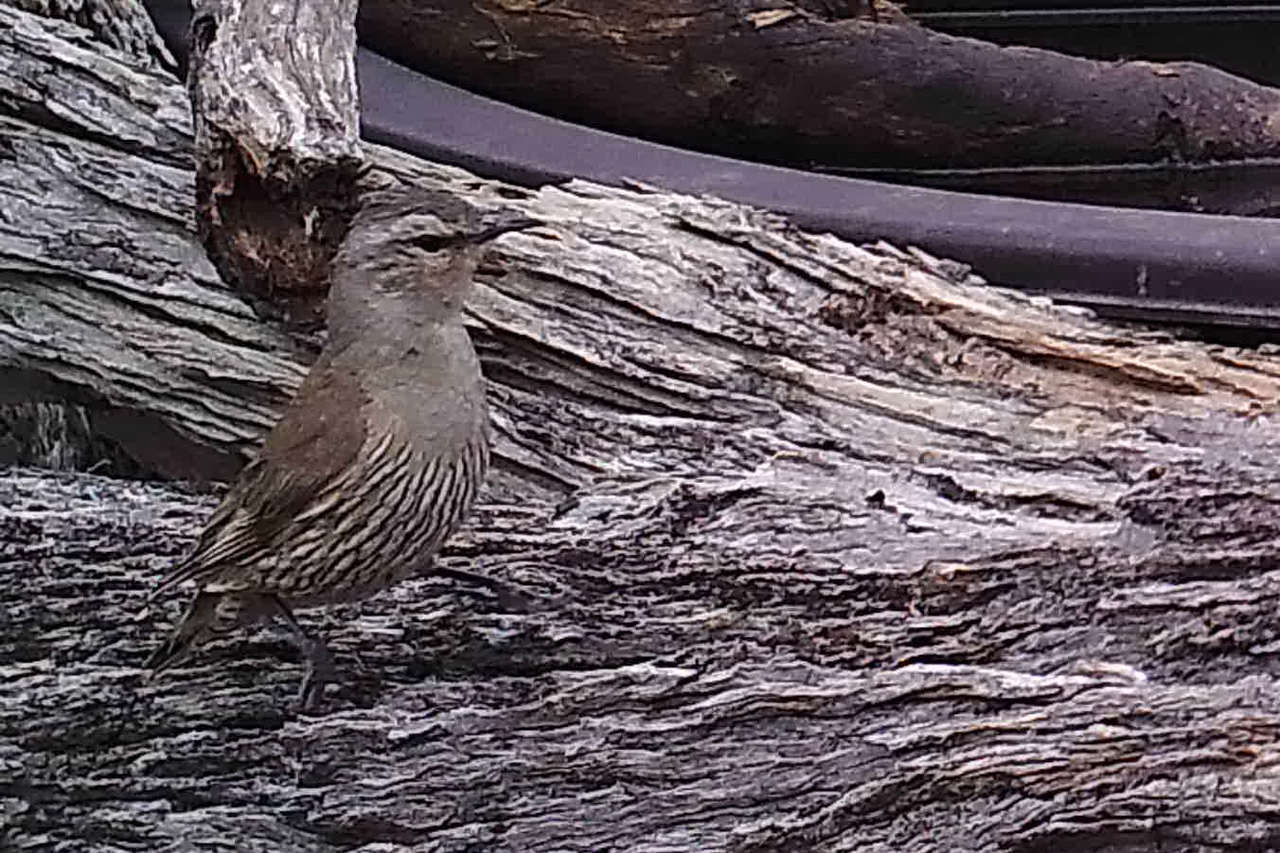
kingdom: Animalia
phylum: Chordata
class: Aves
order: Passeriformes
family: Climacteridae
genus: Climacteris
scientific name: Climacteris picumnus
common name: Brown treecreeper
